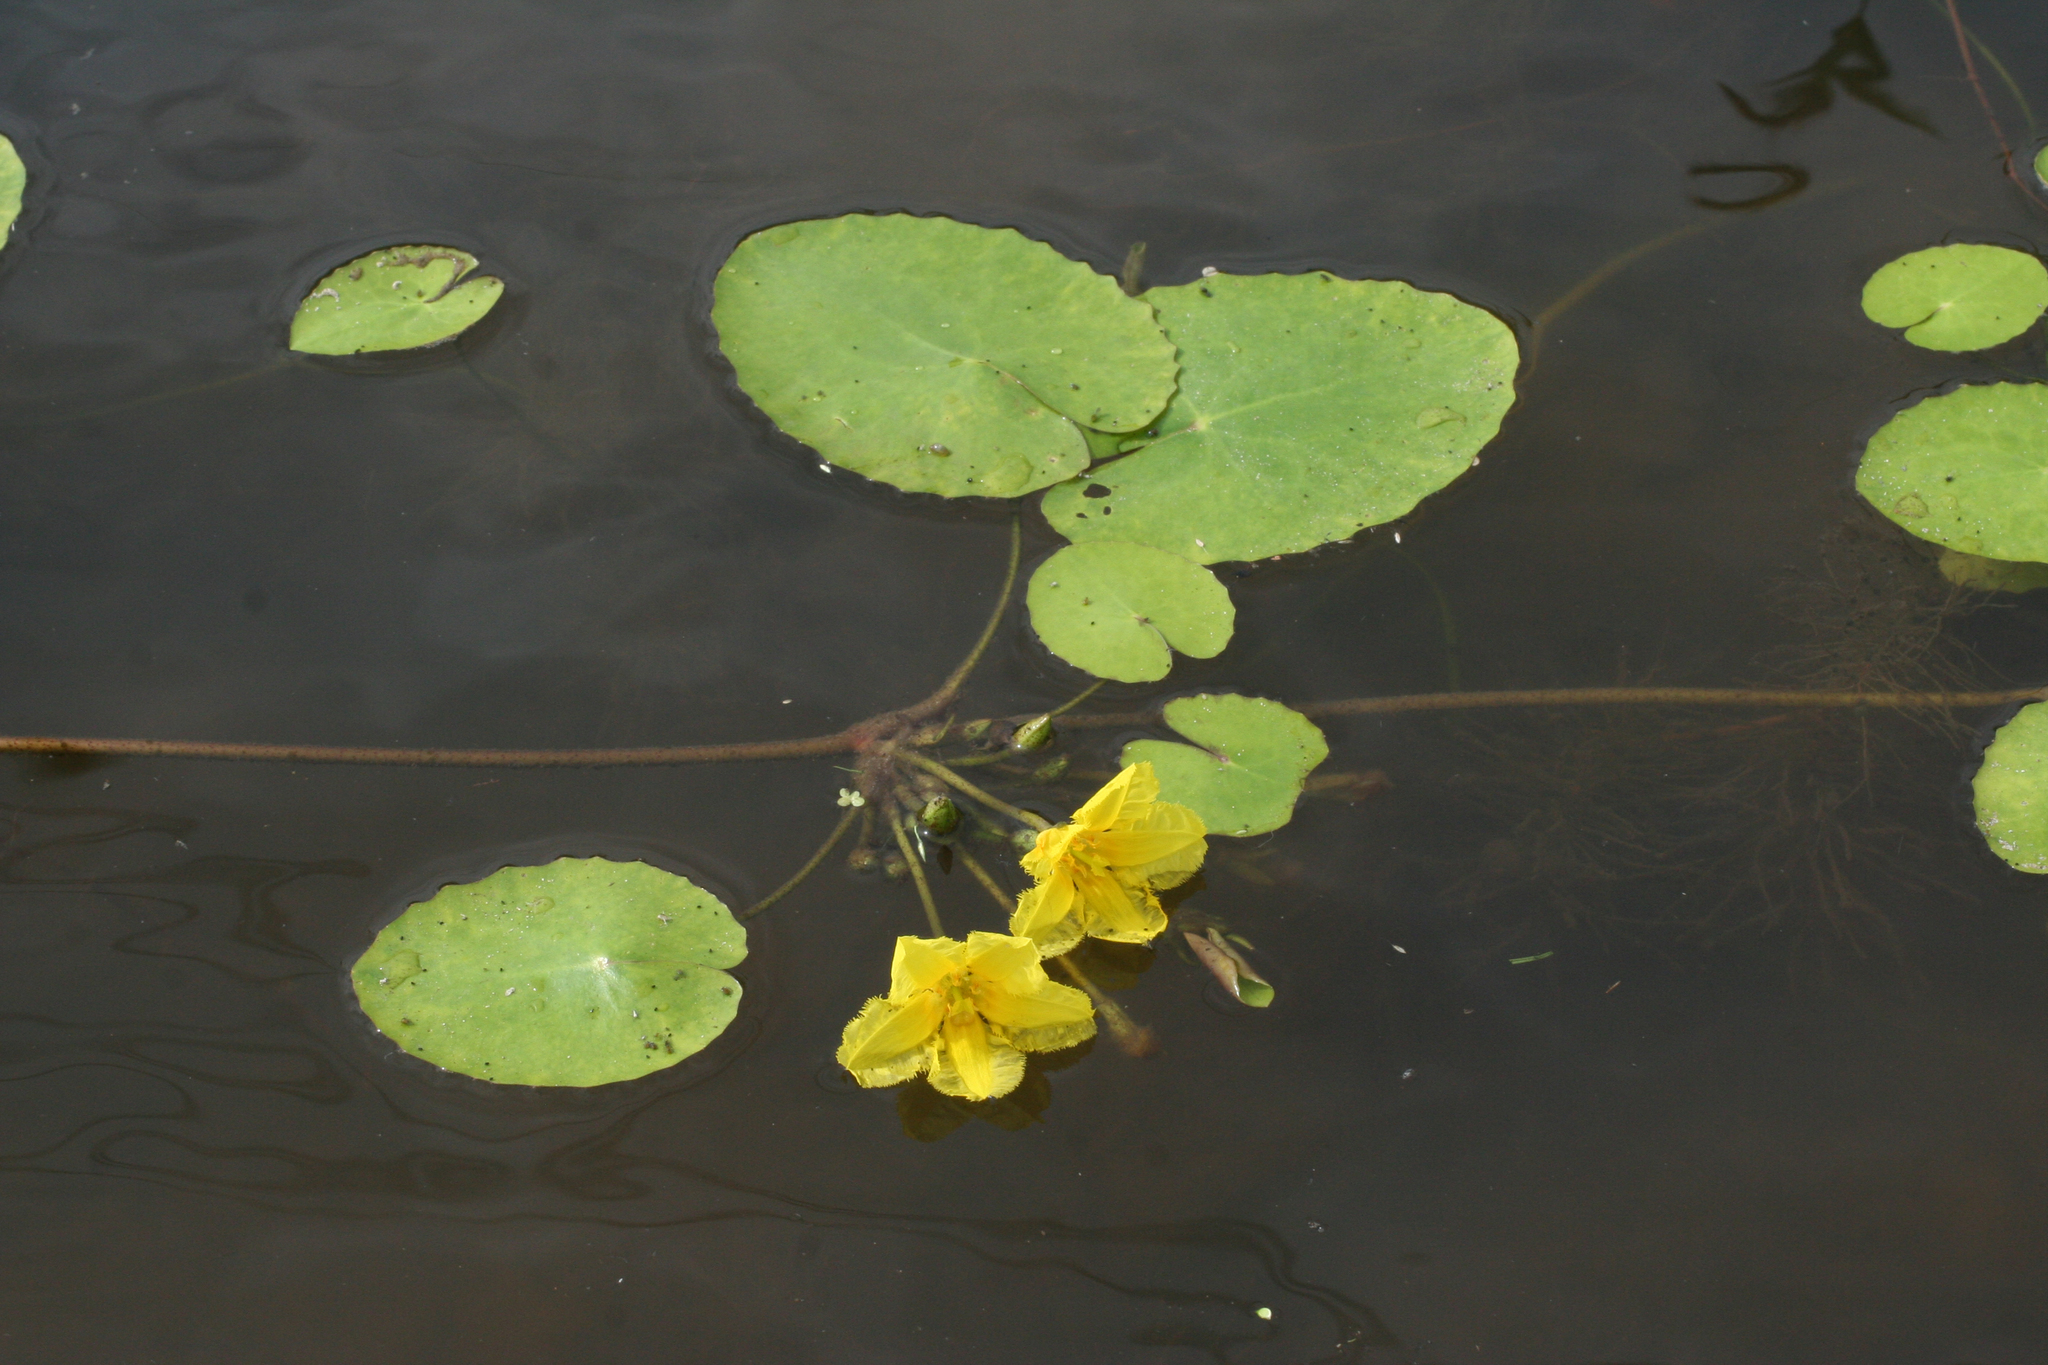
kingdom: Plantae
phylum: Tracheophyta
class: Magnoliopsida
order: Asterales
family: Menyanthaceae
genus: Nymphoides
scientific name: Nymphoides peltata
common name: Fringed water-lily
